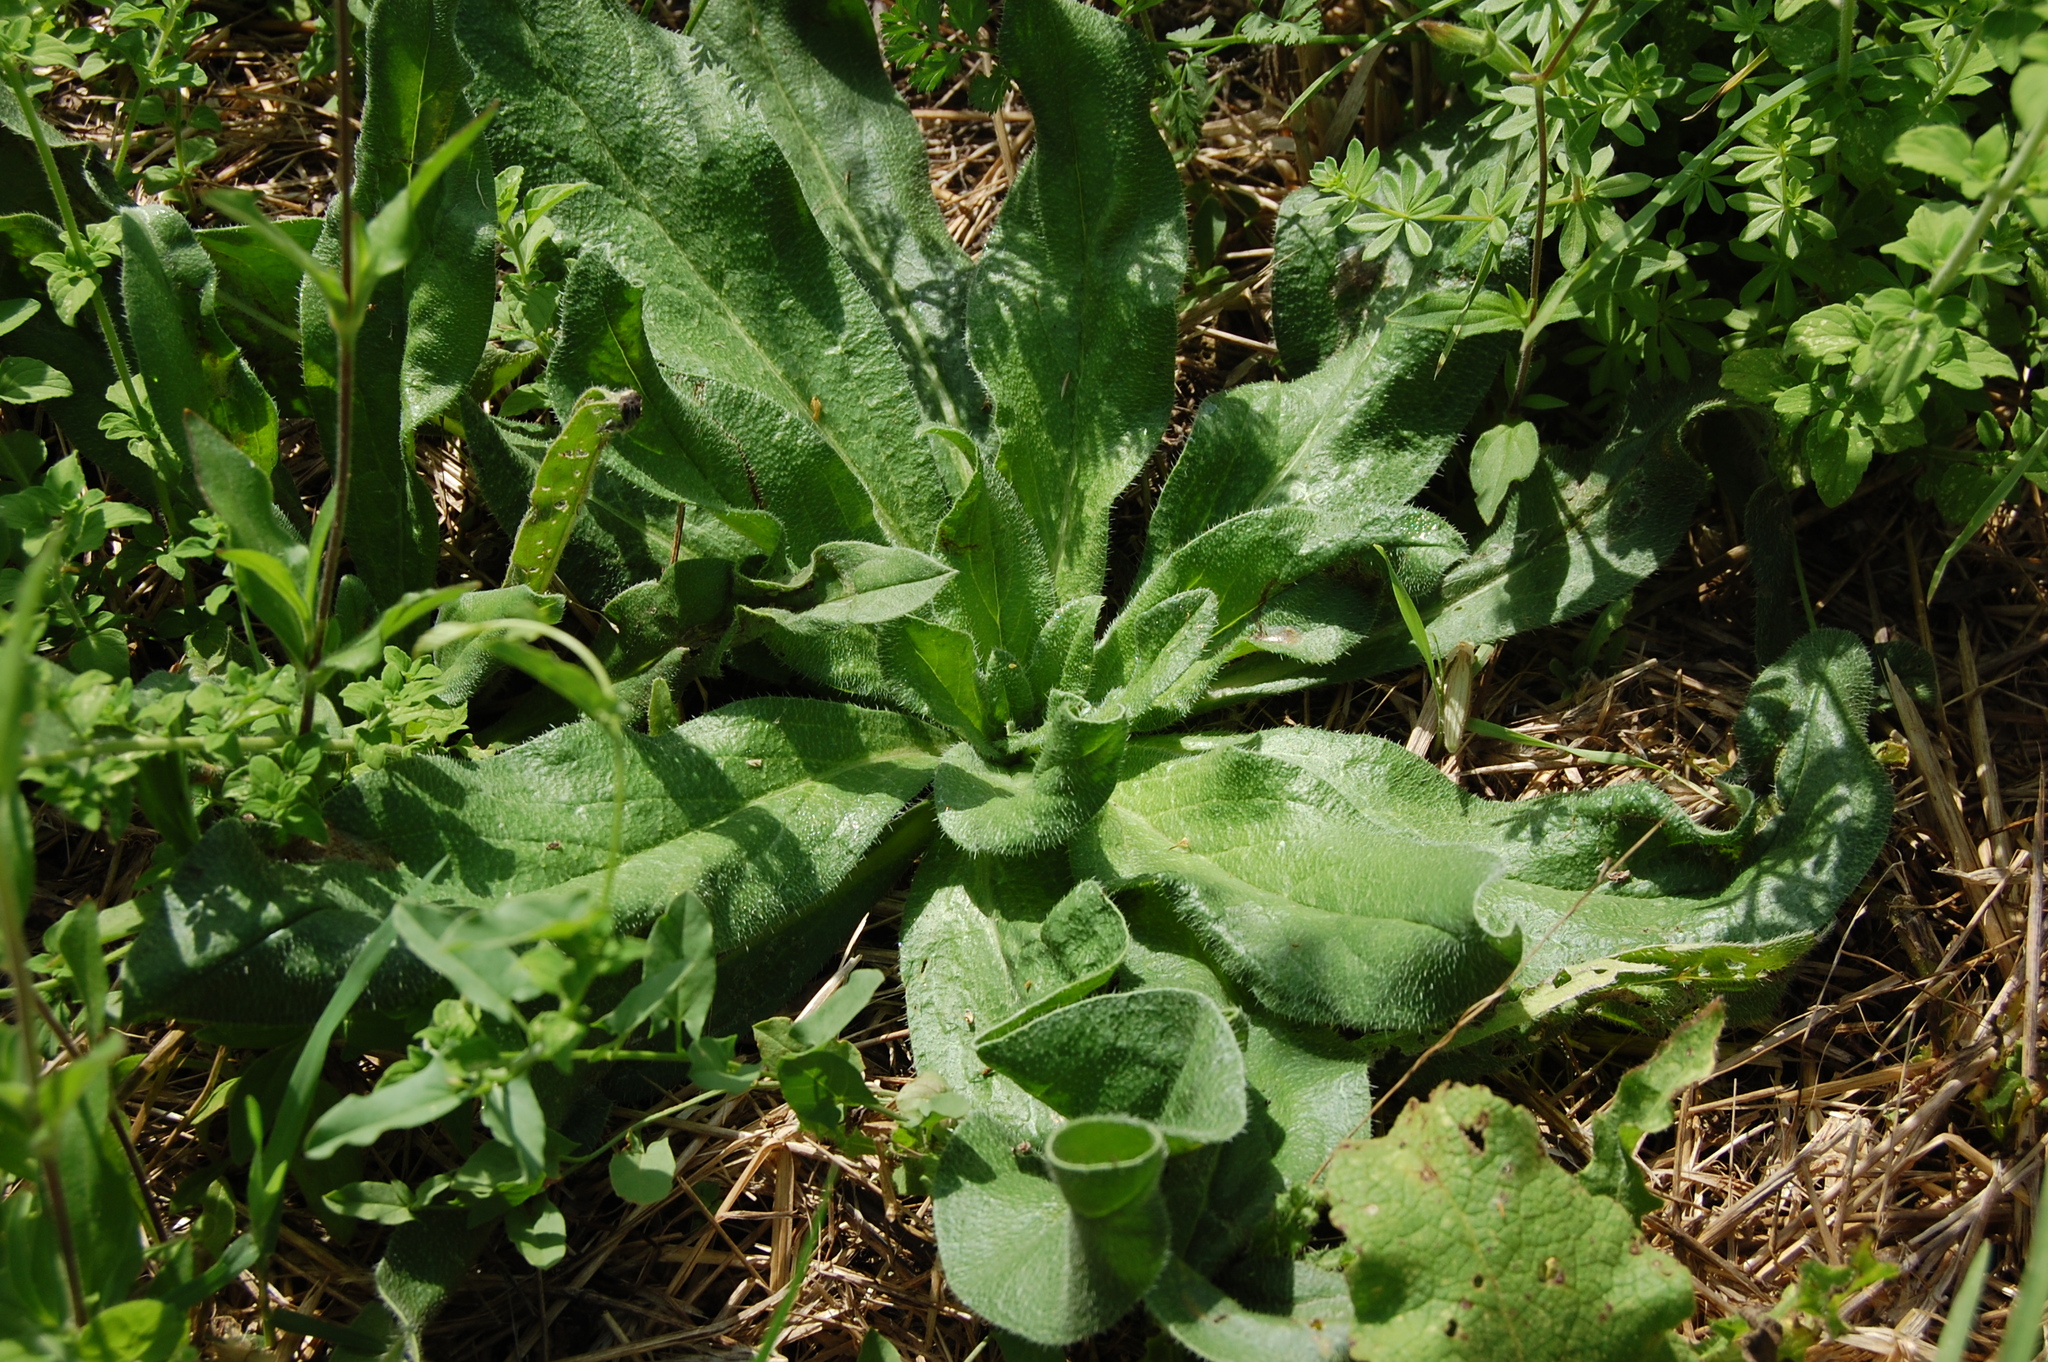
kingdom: Plantae
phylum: Tracheophyta
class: Magnoliopsida
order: Boraginales
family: Boraginaceae
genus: Echium
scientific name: Echium italicum
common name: Italian viper's bugloss
